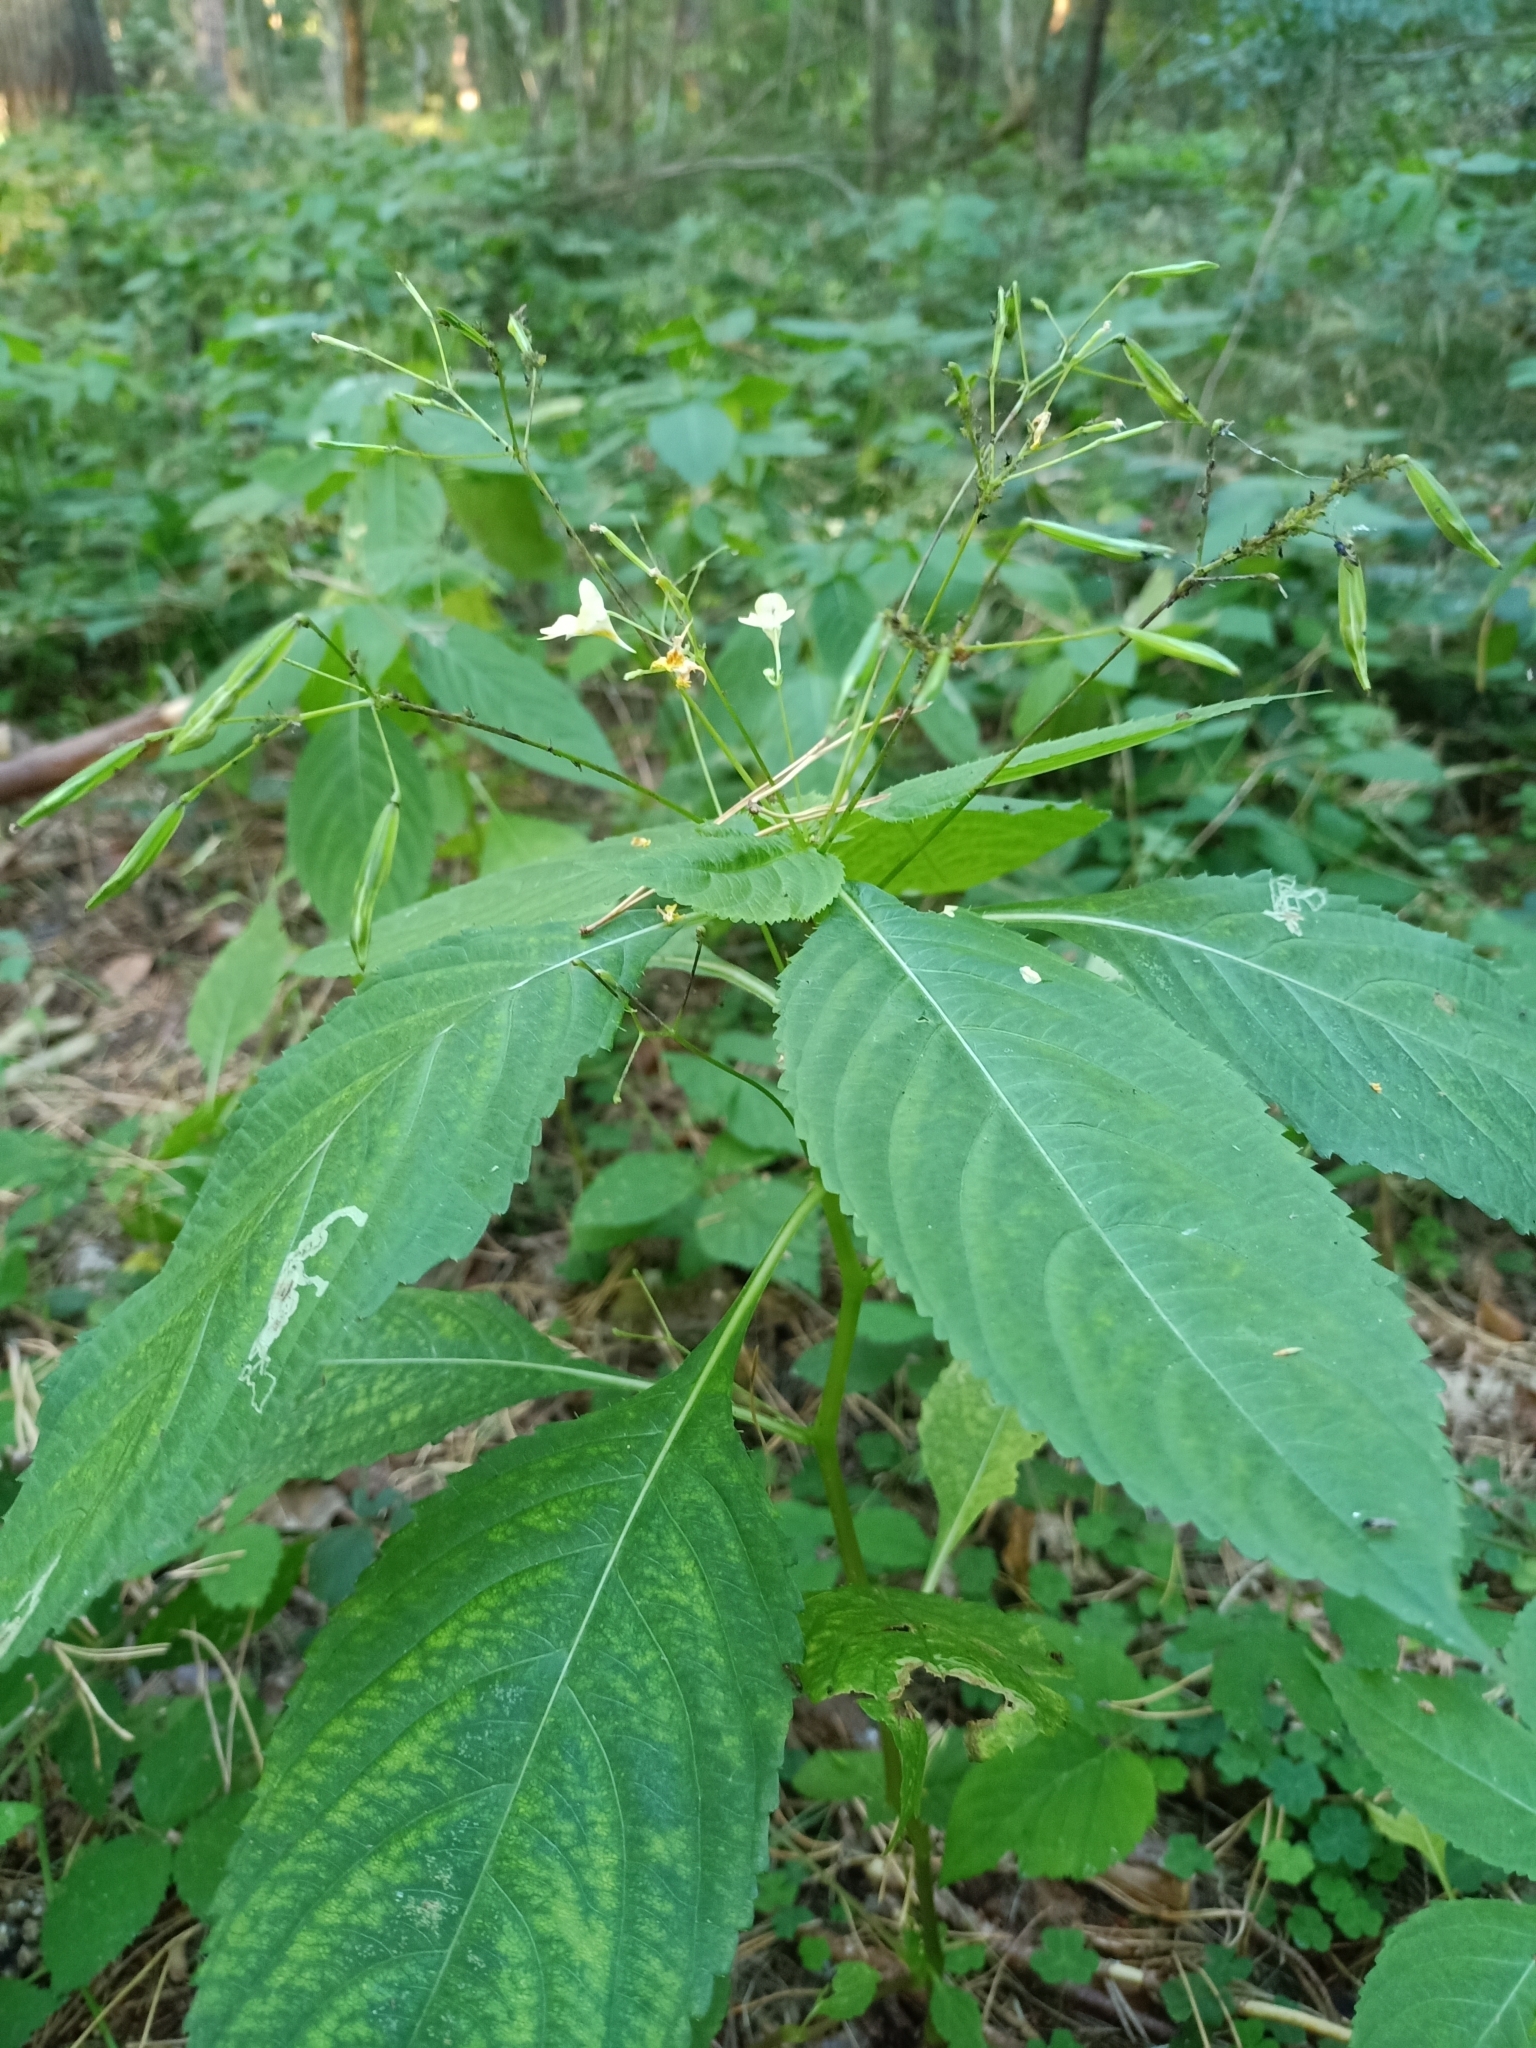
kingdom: Plantae
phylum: Tracheophyta
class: Magnoliopsida
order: Ericales
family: Balsaminaceae
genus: Impatiens
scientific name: Impatiens parviflora
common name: Small balsam
